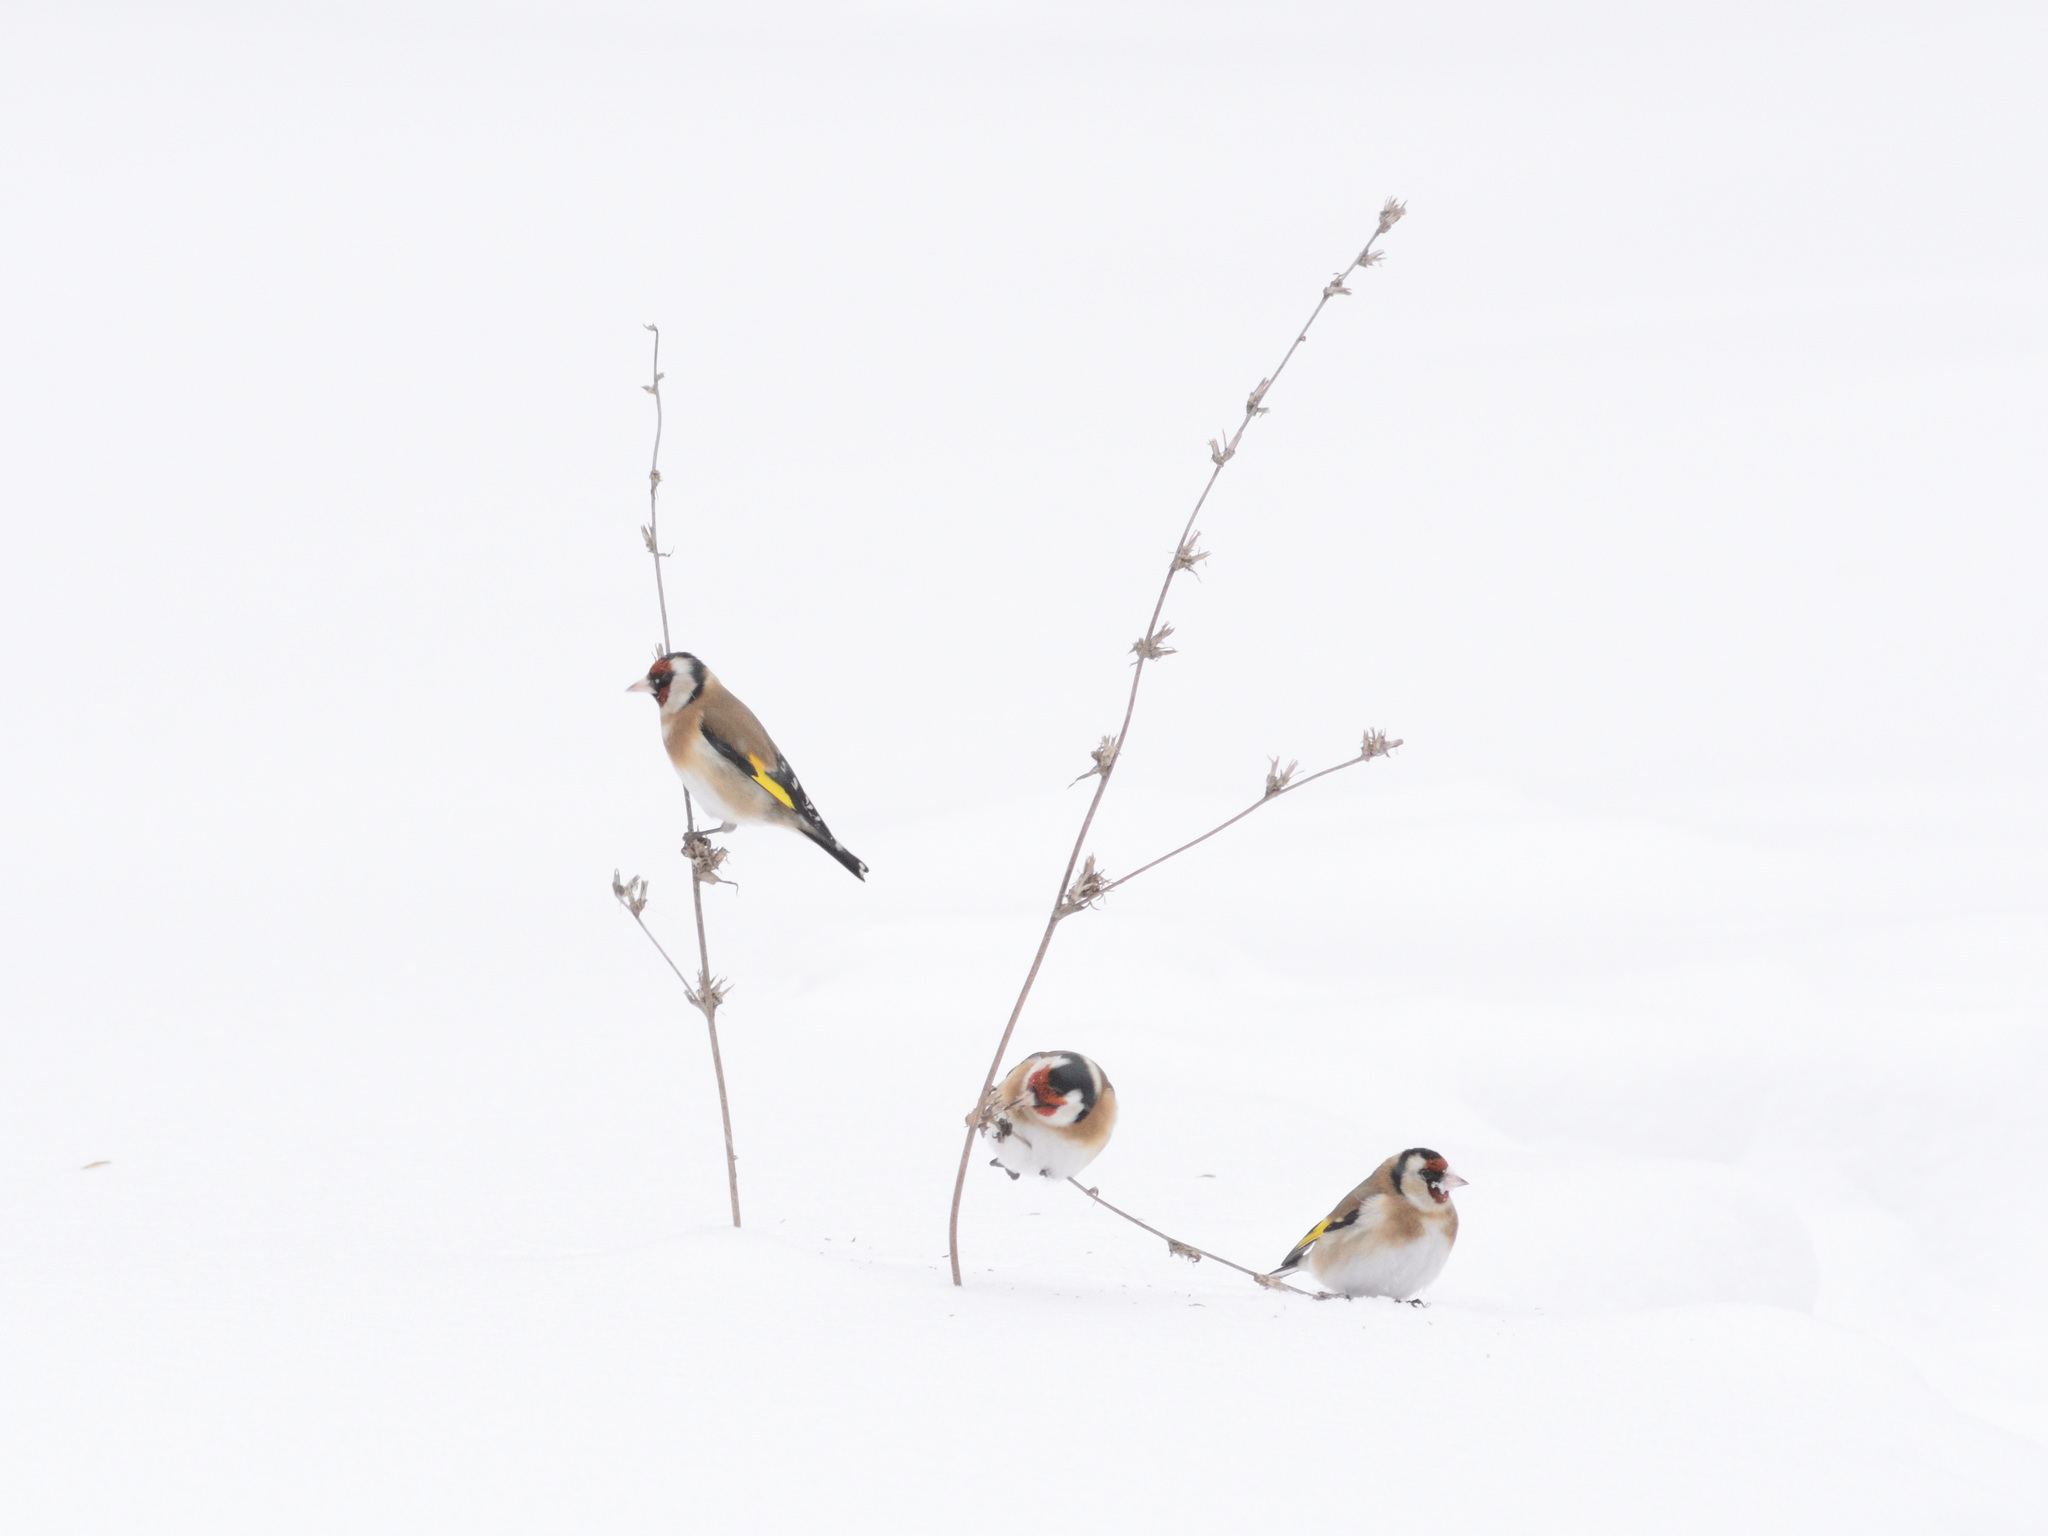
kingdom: Animalia
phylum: Chordata
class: Aves
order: Passeriformes
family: Fringillidae
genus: Carduelis
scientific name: Carduelis carduelis
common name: European goldfinch
